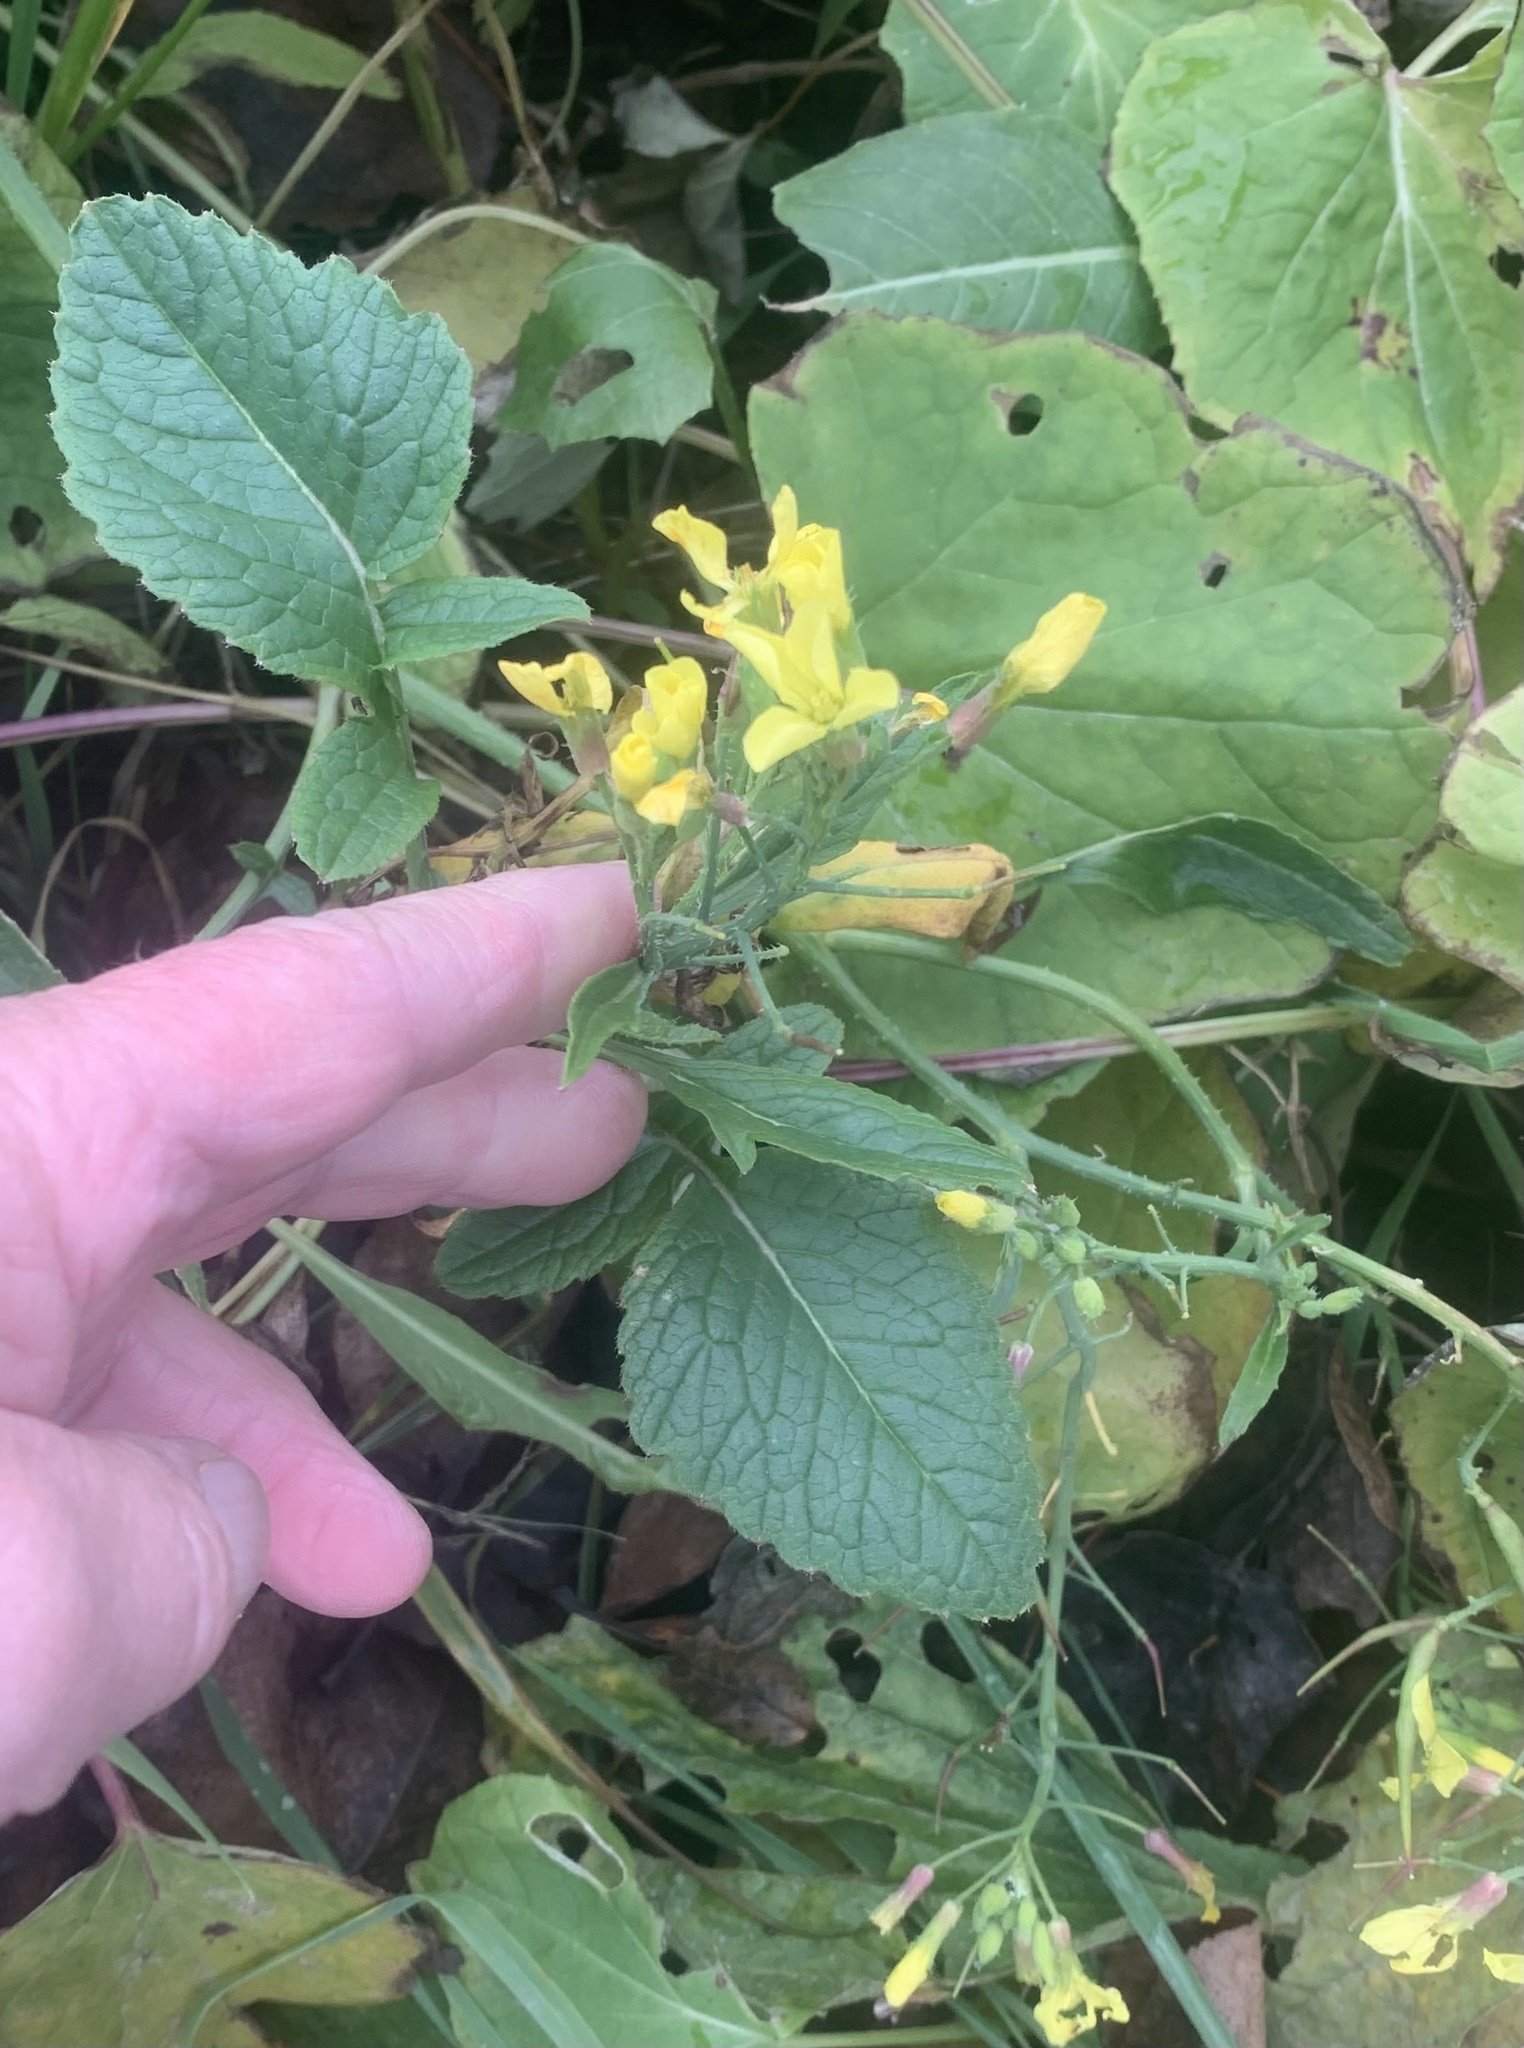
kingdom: Plantae
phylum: Tracheophyta
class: Magnoliopsida
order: Brassicales
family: Brassicaceae
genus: Raphanus
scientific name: Raphanus raphanistrum
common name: Wild radish
